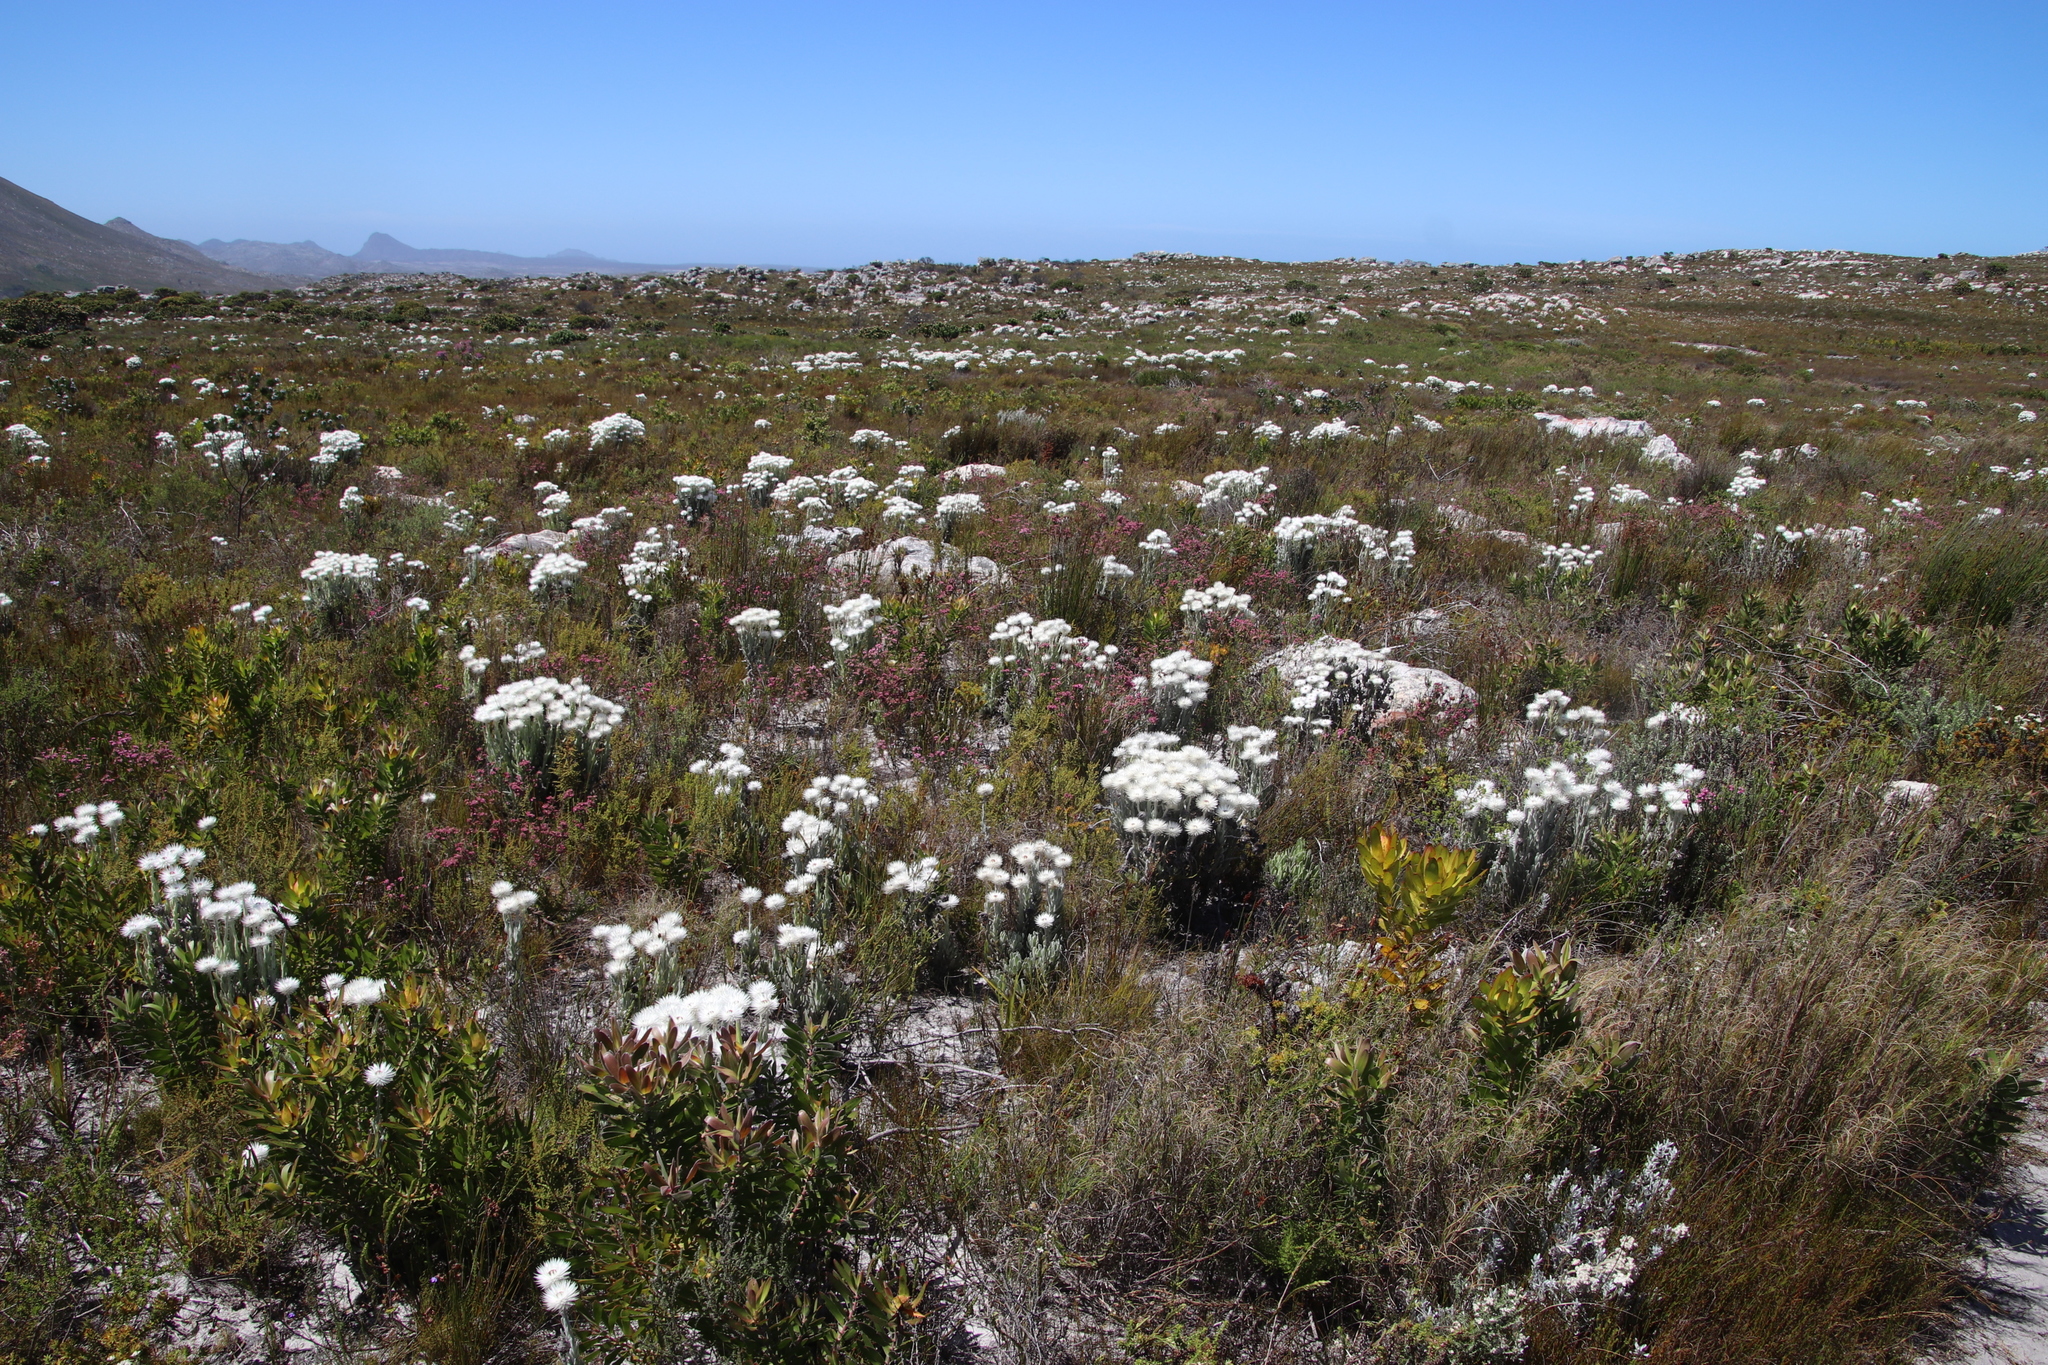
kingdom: Plantae
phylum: Tracheophyta
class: Magnoliopsida
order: Asterales
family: Asteraceae
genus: Syncarpha
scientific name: Syncarpha vestita
